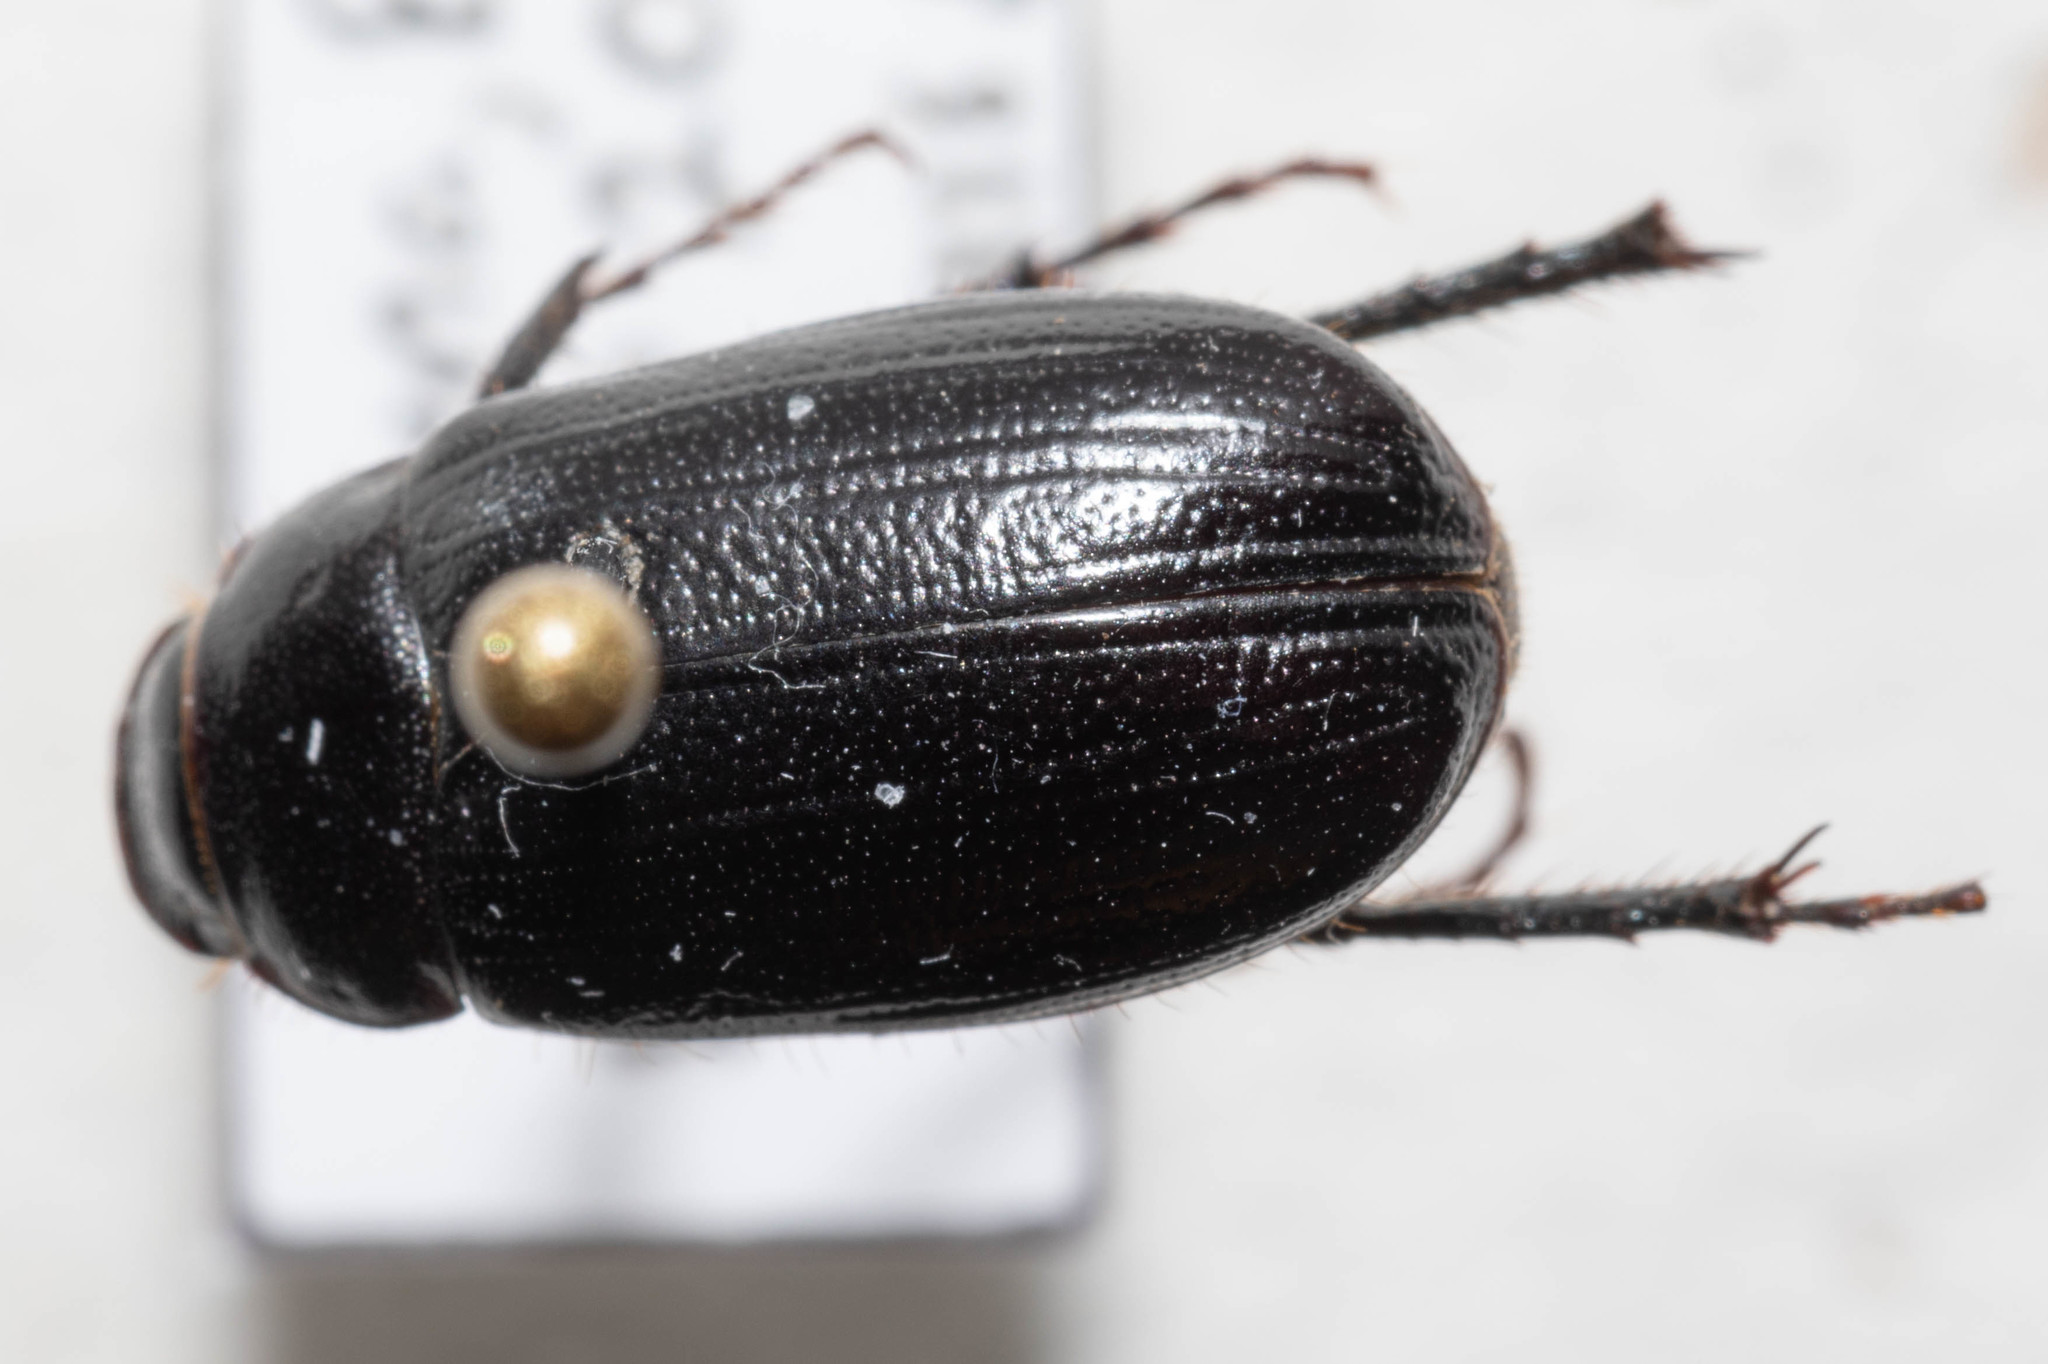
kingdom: Animalia
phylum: Arthropoda
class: Insecta
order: Coleoptera
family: Scarabaeidae
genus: Diplotaxis
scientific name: Diplotaxis brevicollis
